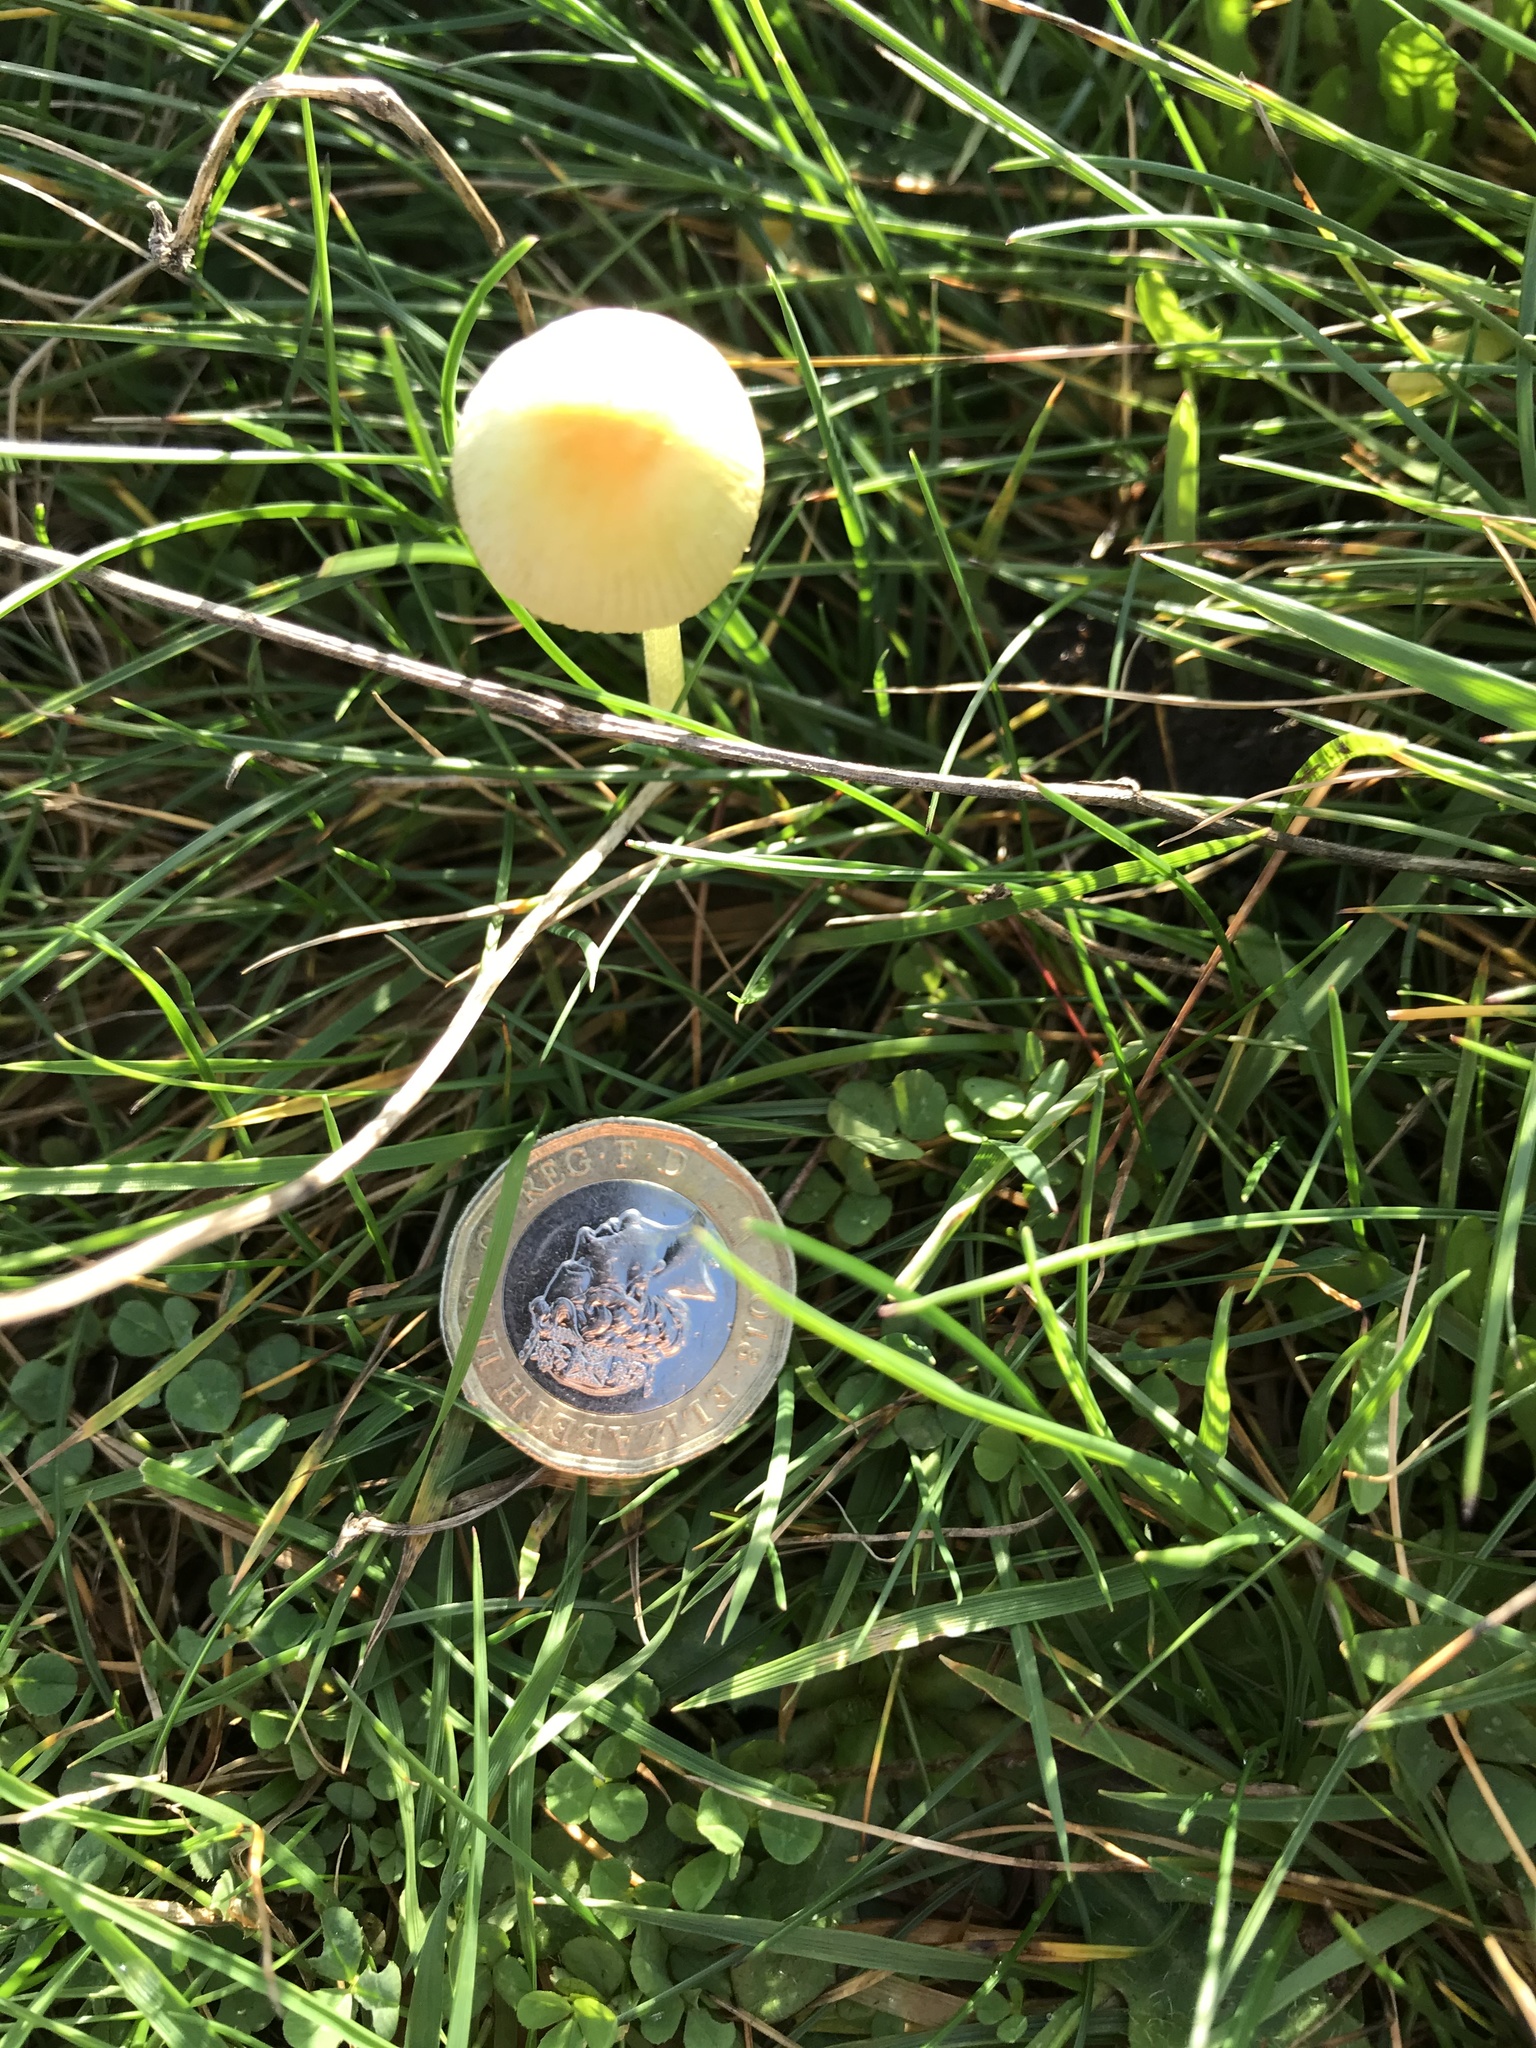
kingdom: Fungi
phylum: Basidiomycota
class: Agaricomycetes
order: Agaricales
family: Bolbitiaceae
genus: Bolbitius
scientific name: Bolbitius titubans
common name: Yellow fieldcap
